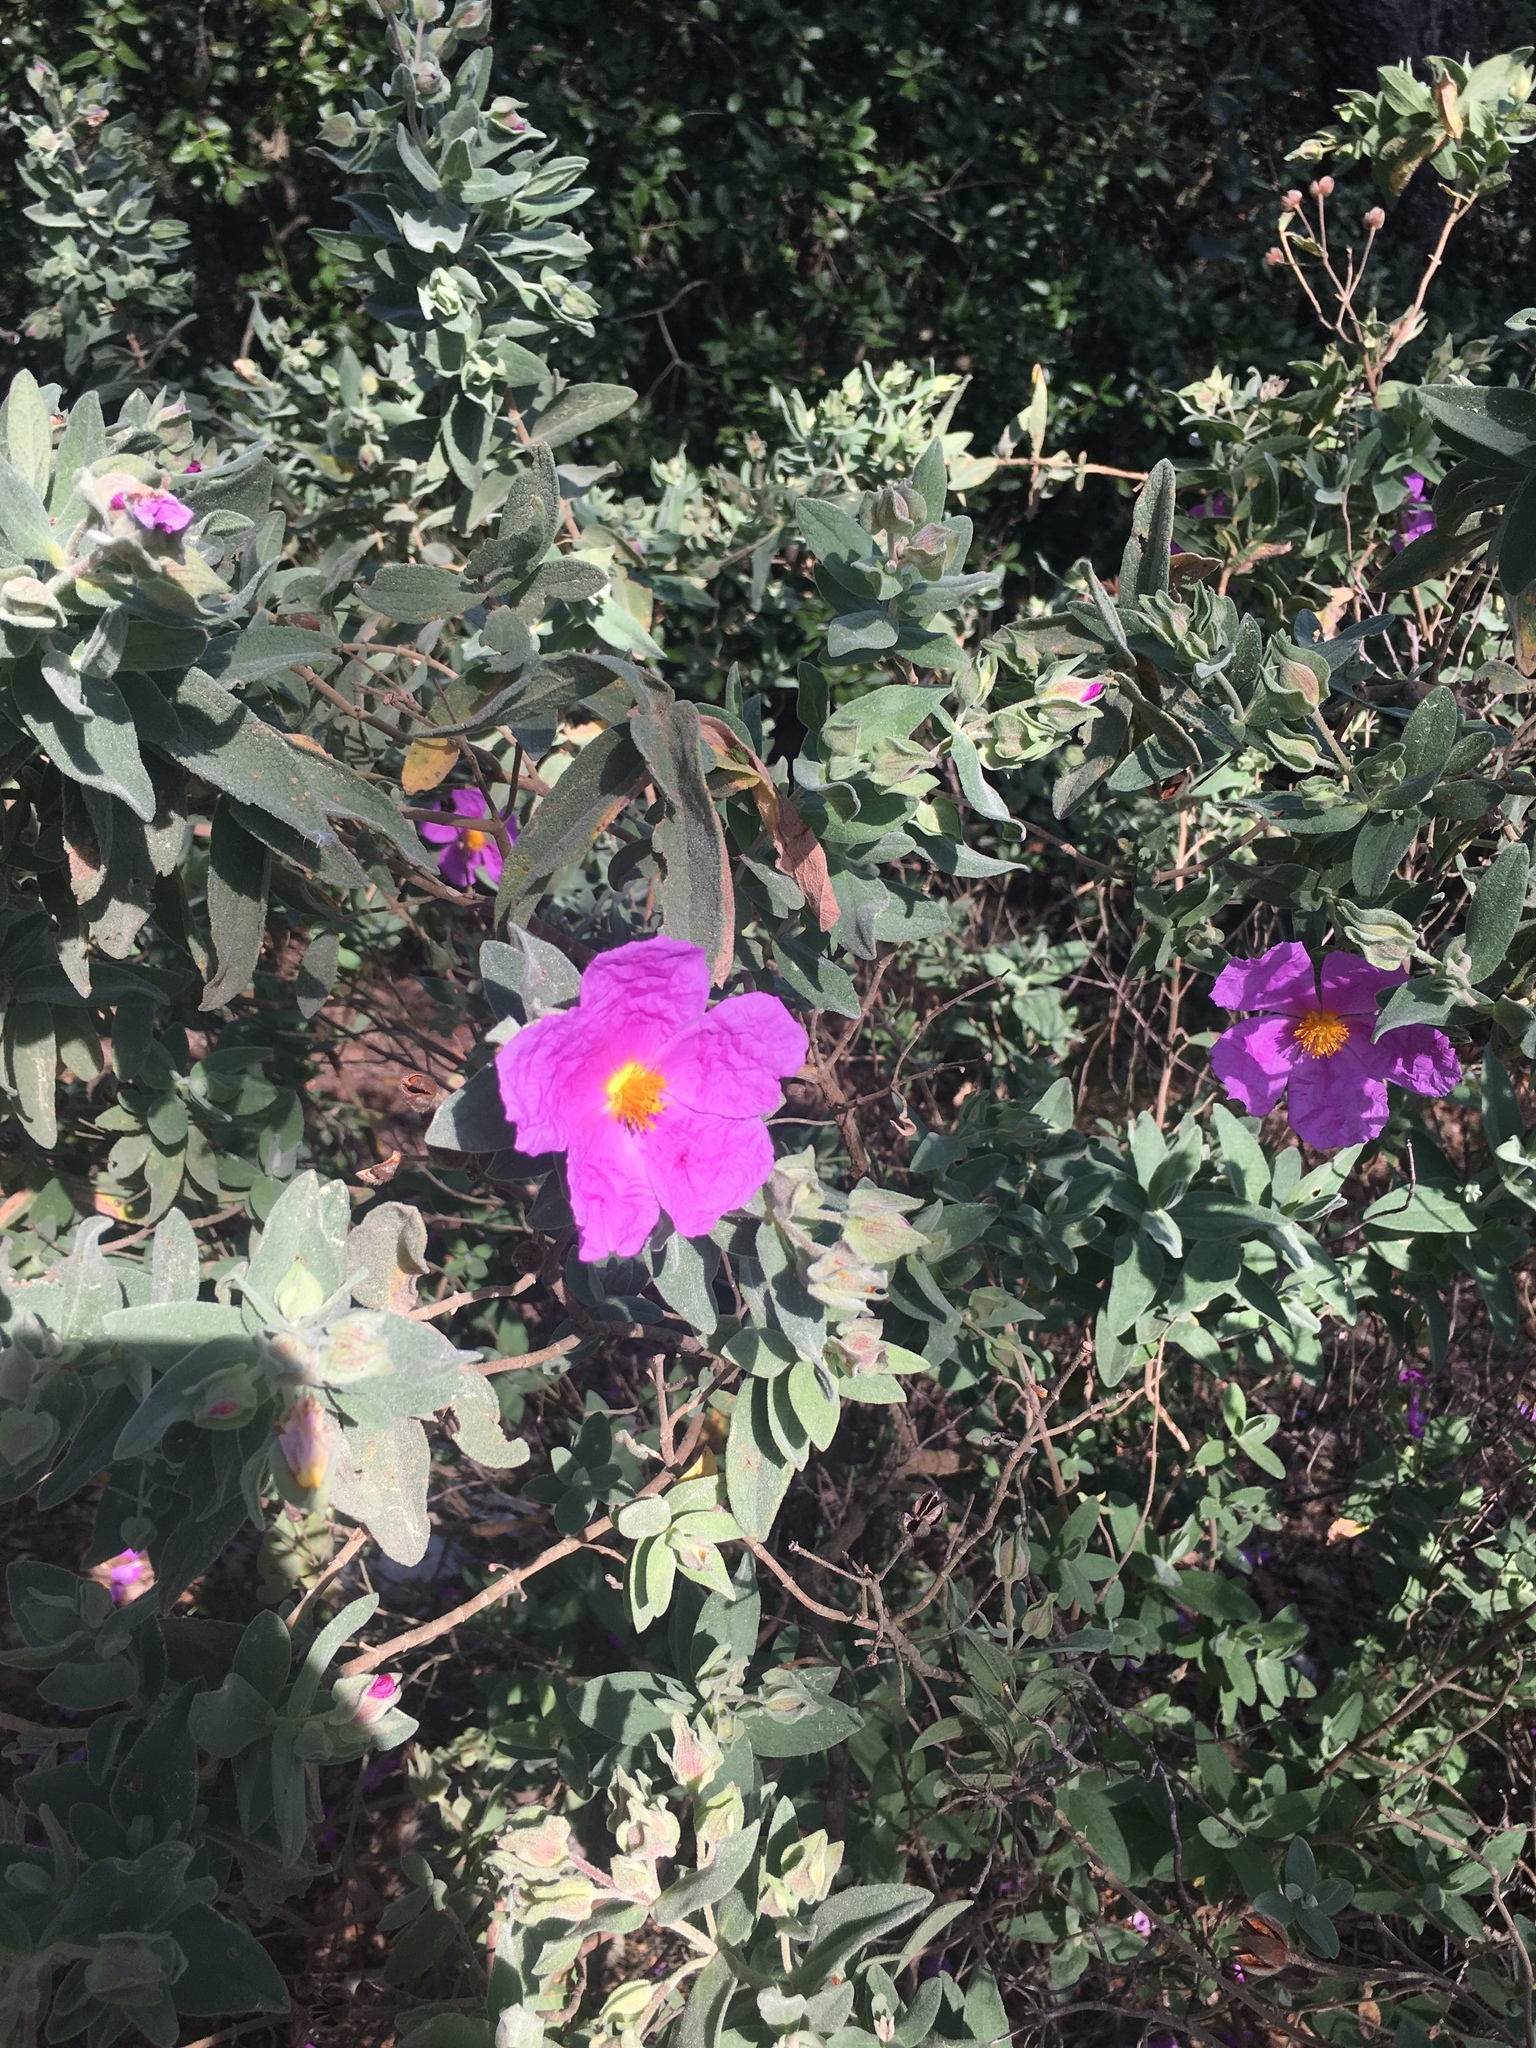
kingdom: Plantae
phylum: Tracheophyta
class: Magnoliopsida
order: Malvales
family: Cistaceae
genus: Cistus
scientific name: Cistus albidus
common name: White-leaf rock-rose
